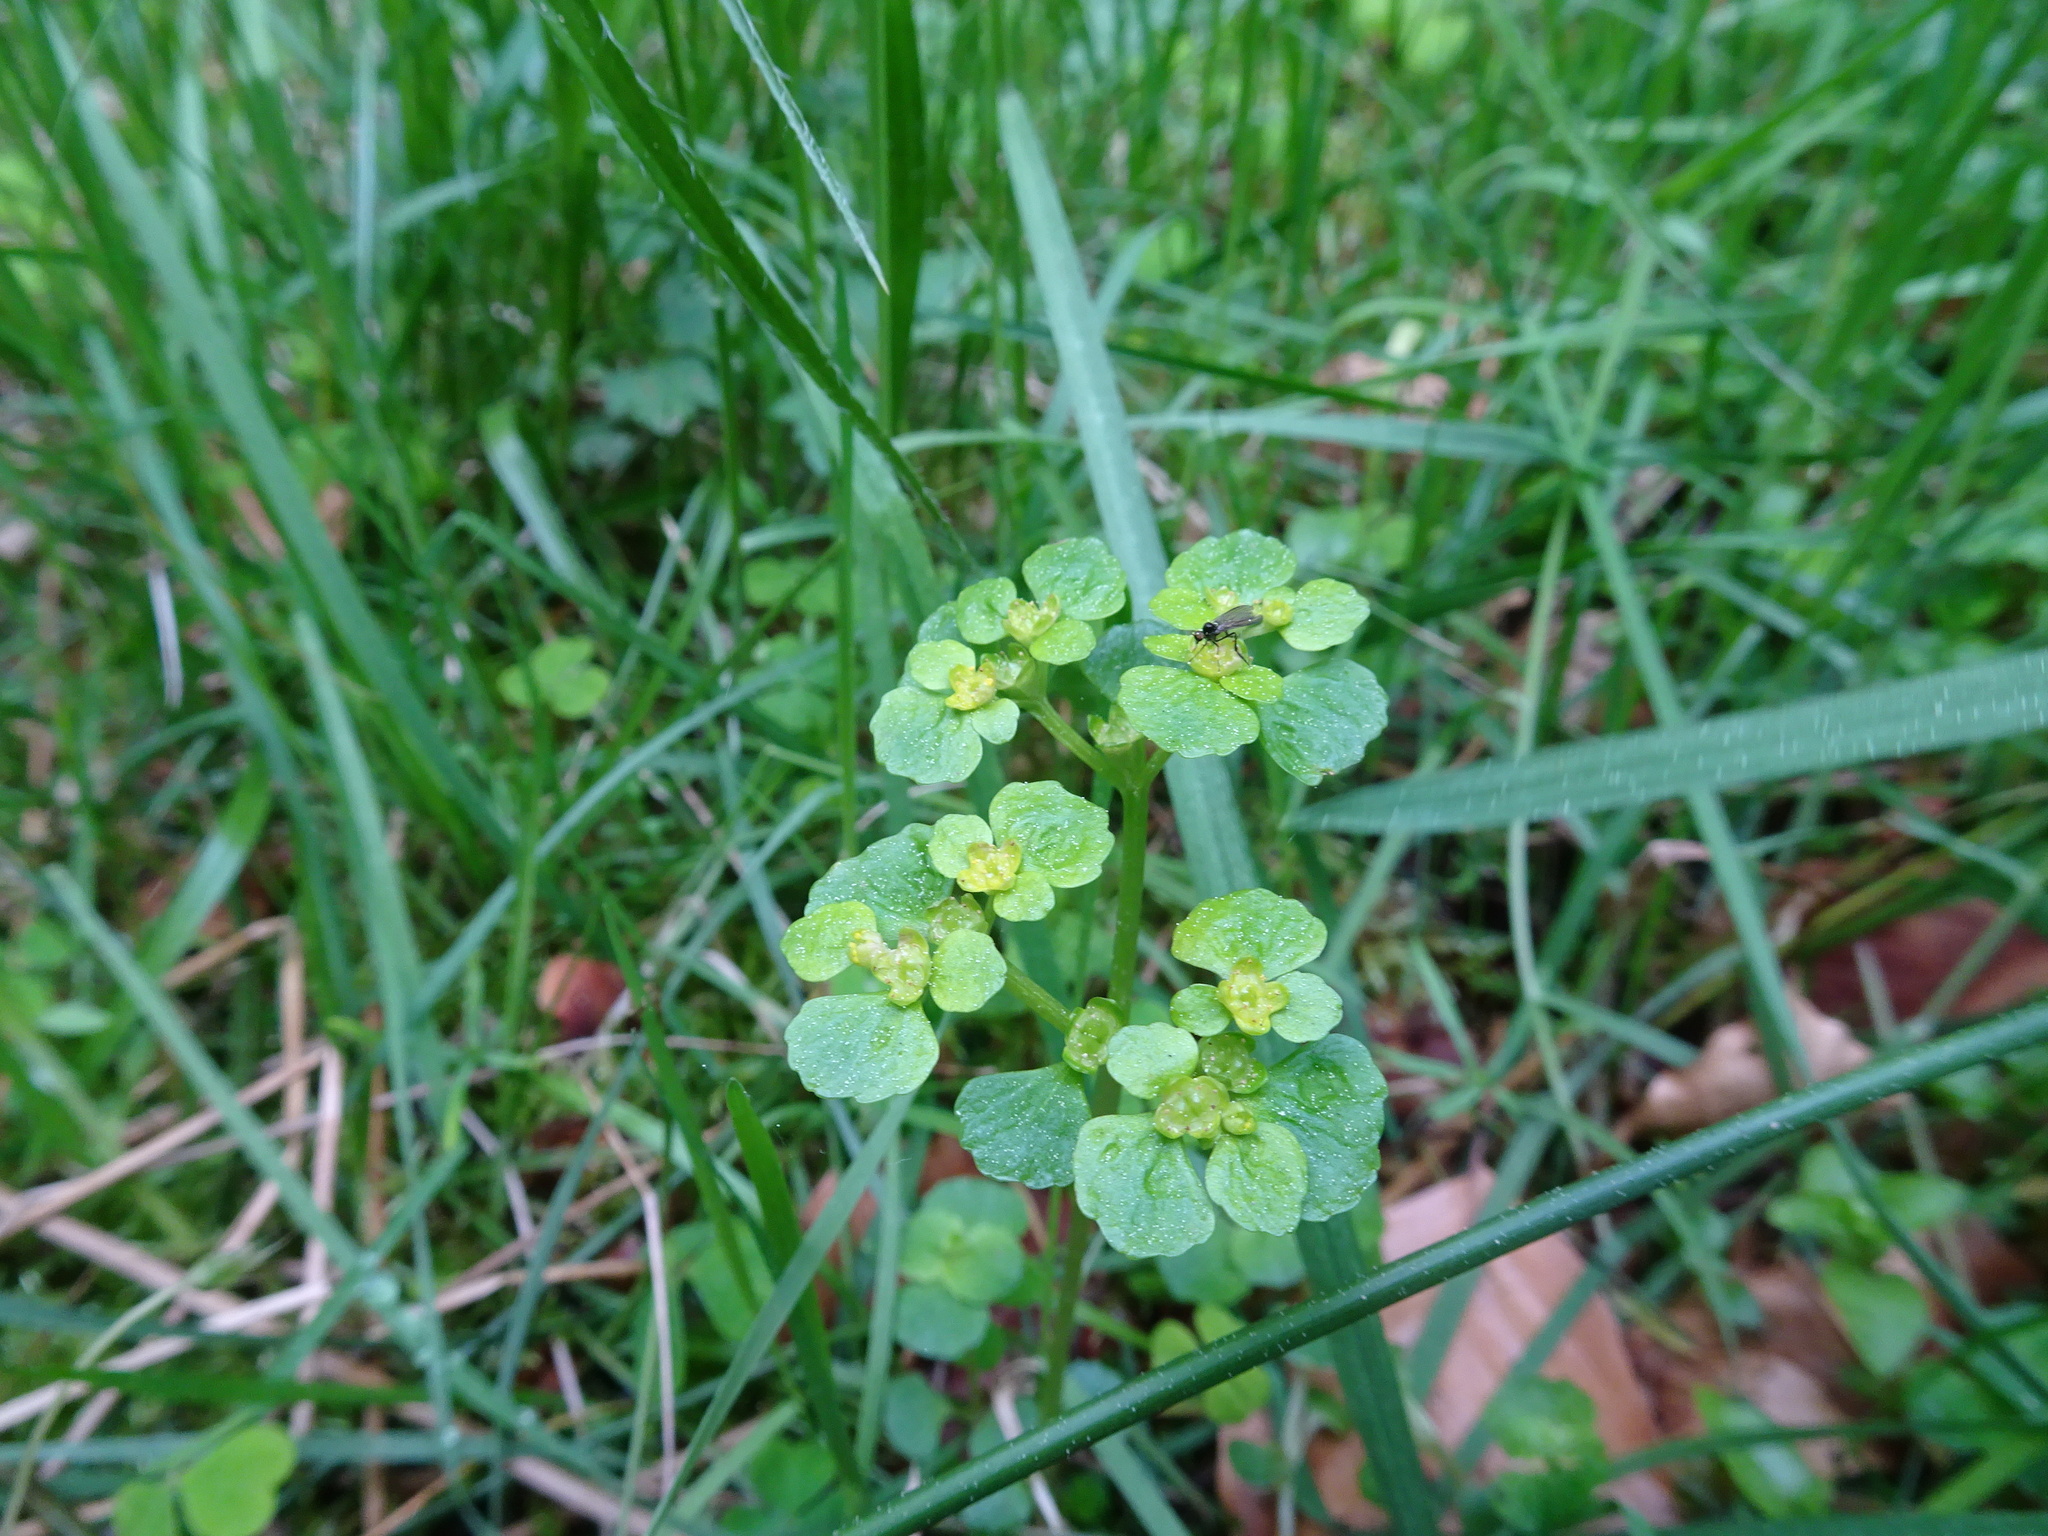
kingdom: Plantae
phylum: Tracheophyta
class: Magnoliopsida
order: Saxifragales
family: Saxifragaceae
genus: Chrysosplenium
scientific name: Chrysosplenium oppositifolium
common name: Opposite-leaved golden-saxifrage
